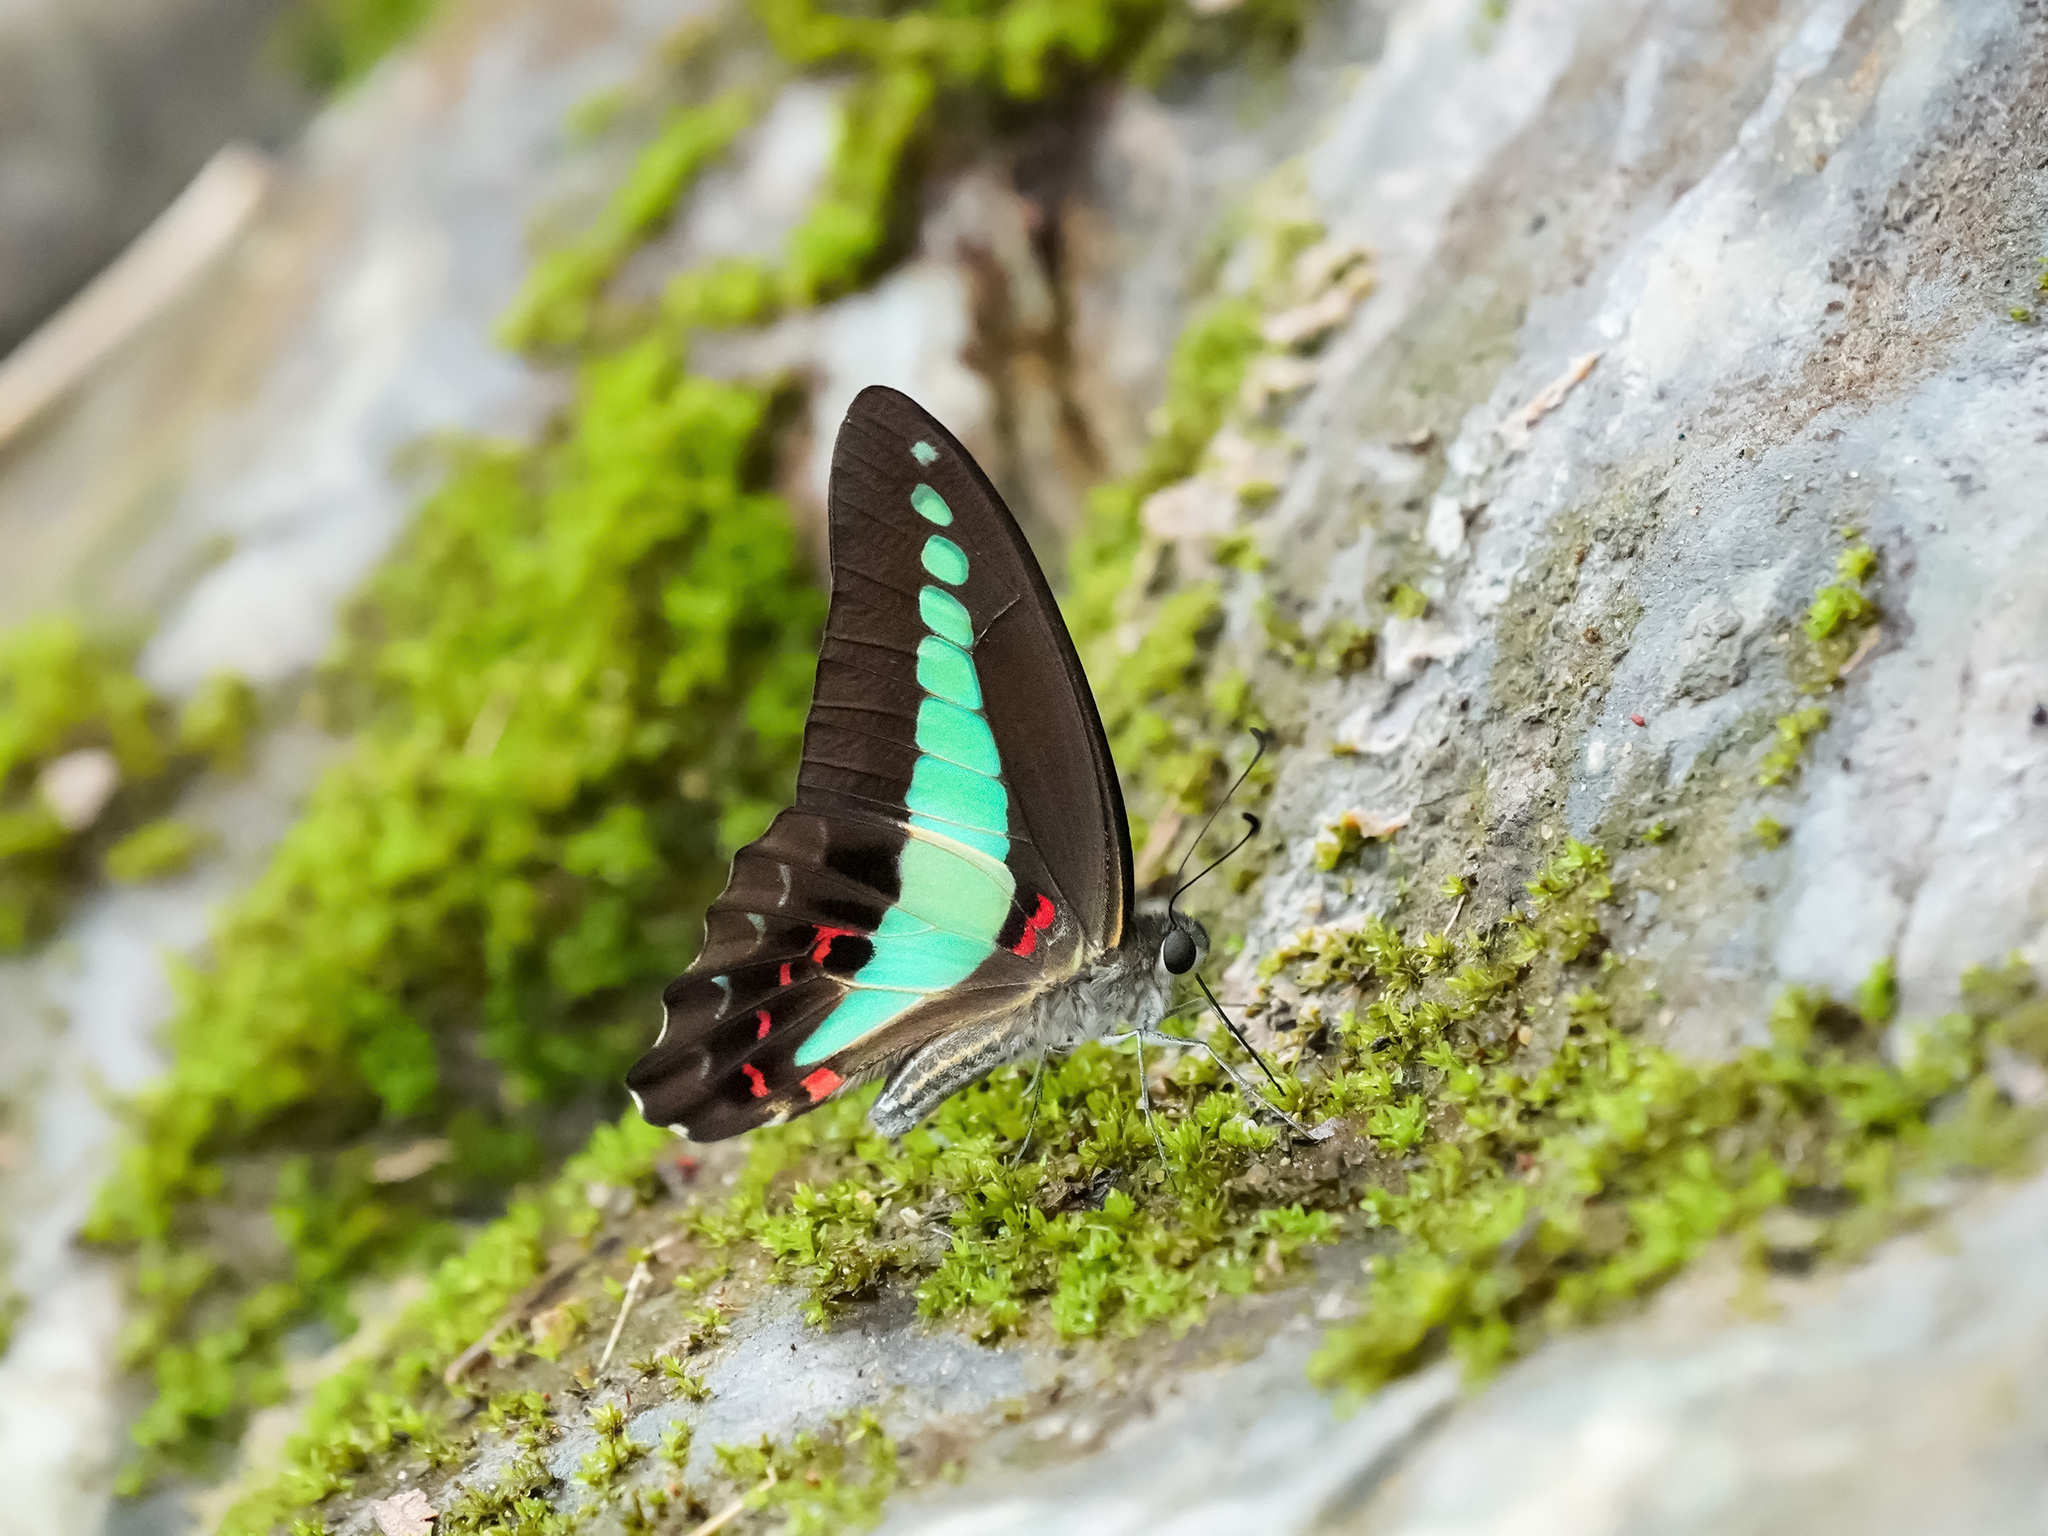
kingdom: Fungi
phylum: Ascomycota
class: Sordariomycetes
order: Microascales
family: Microascaceae
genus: Graphium
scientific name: Graphium sarpedon
